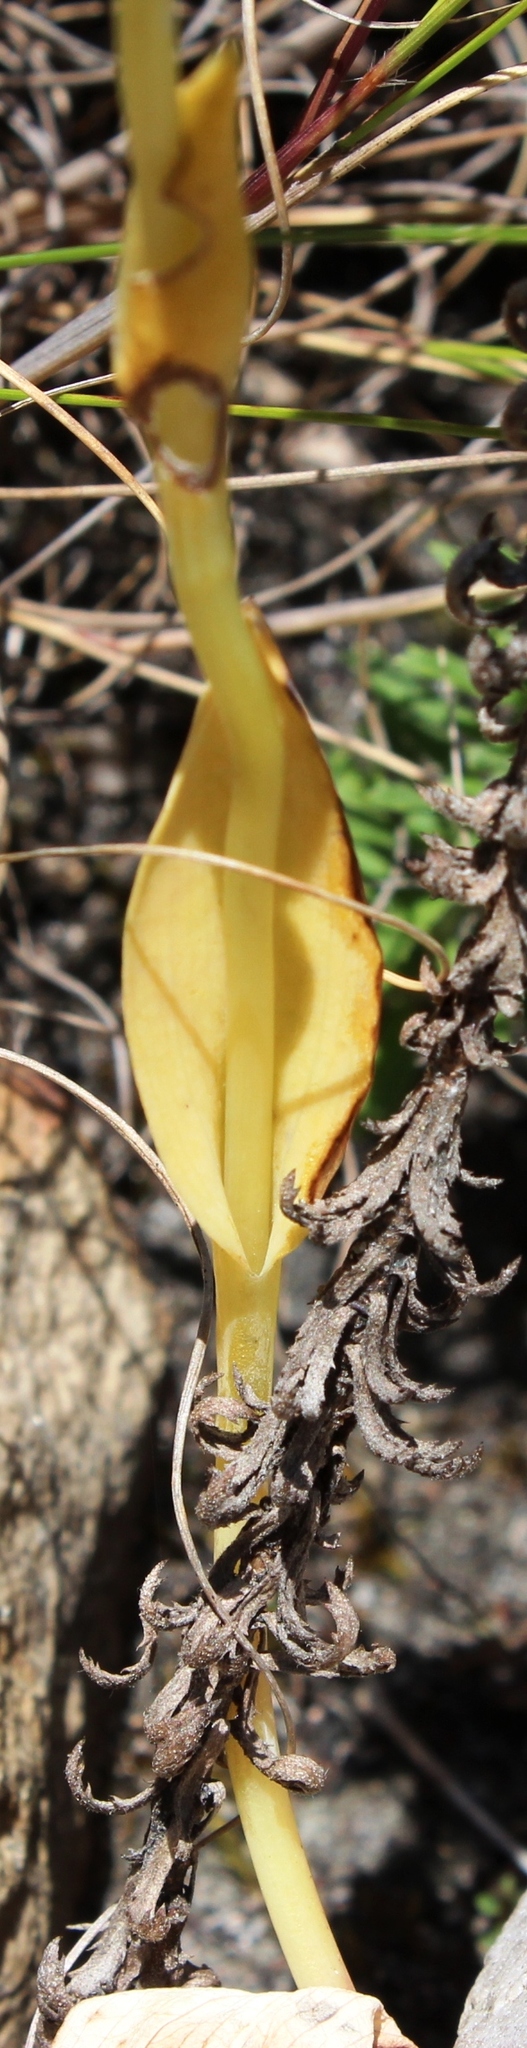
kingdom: Plantae
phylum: Tracheophyta
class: Liliopsida
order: Asparagales
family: Orchidaceae
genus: Pterygodium
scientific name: Pterygodium catholicum
